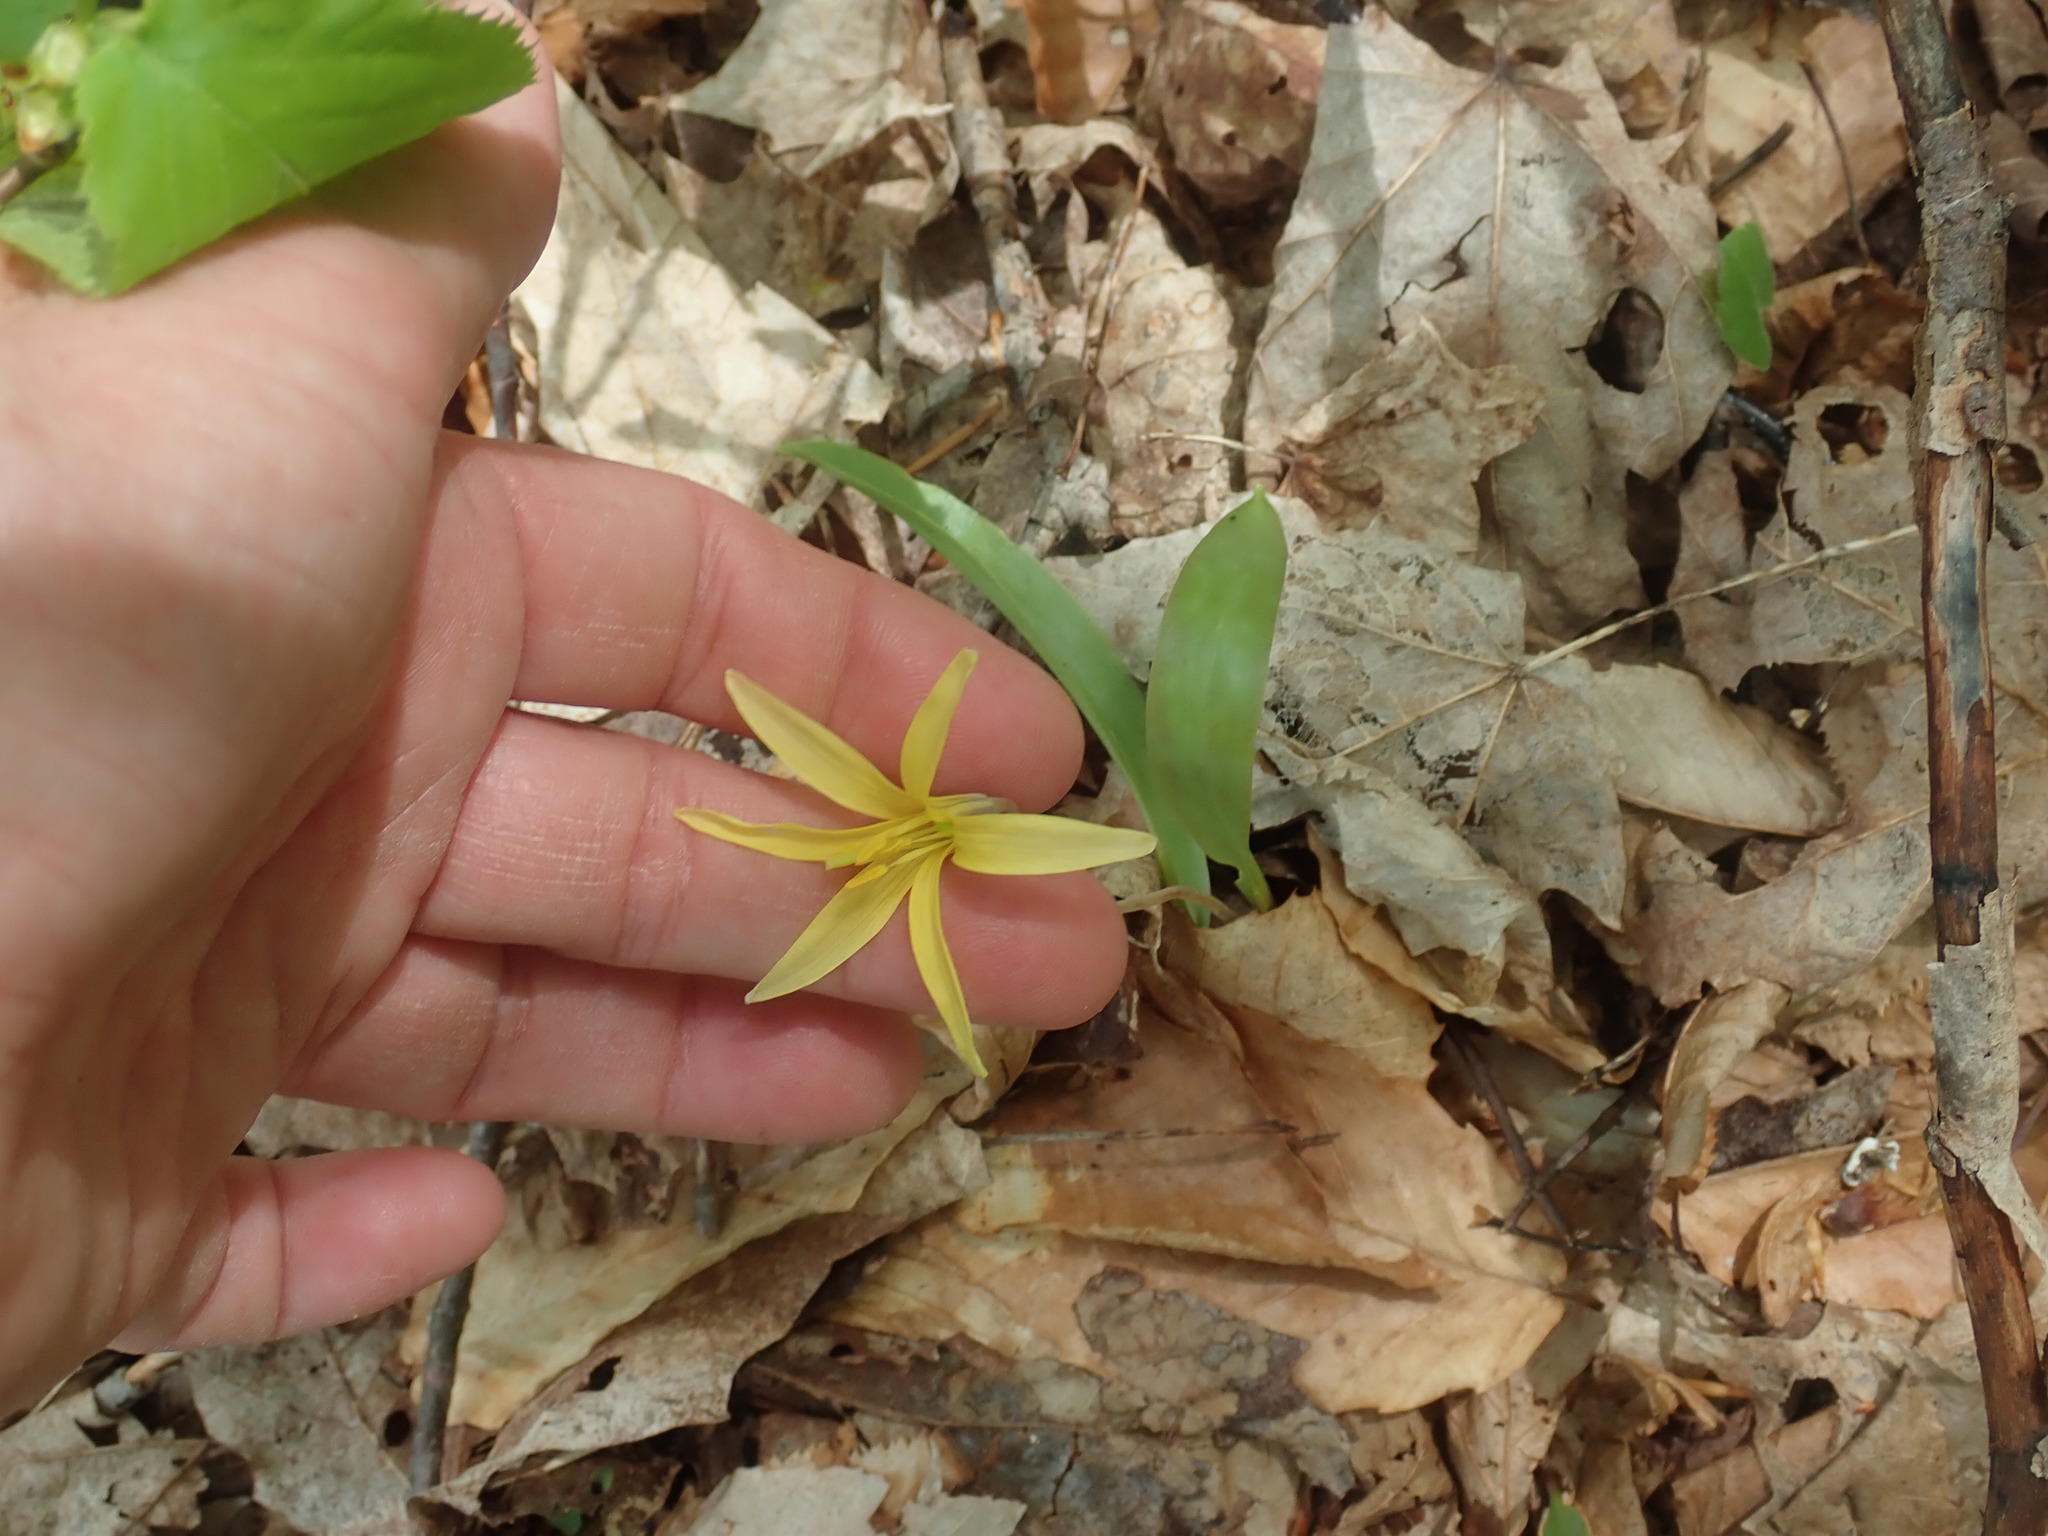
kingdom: Plantae
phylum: Tracheophyta
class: Liliopsida
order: Liliales
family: Liliaceae
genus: Erythronium
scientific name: Erythronium americanum
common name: Yellow adder's-tongue
